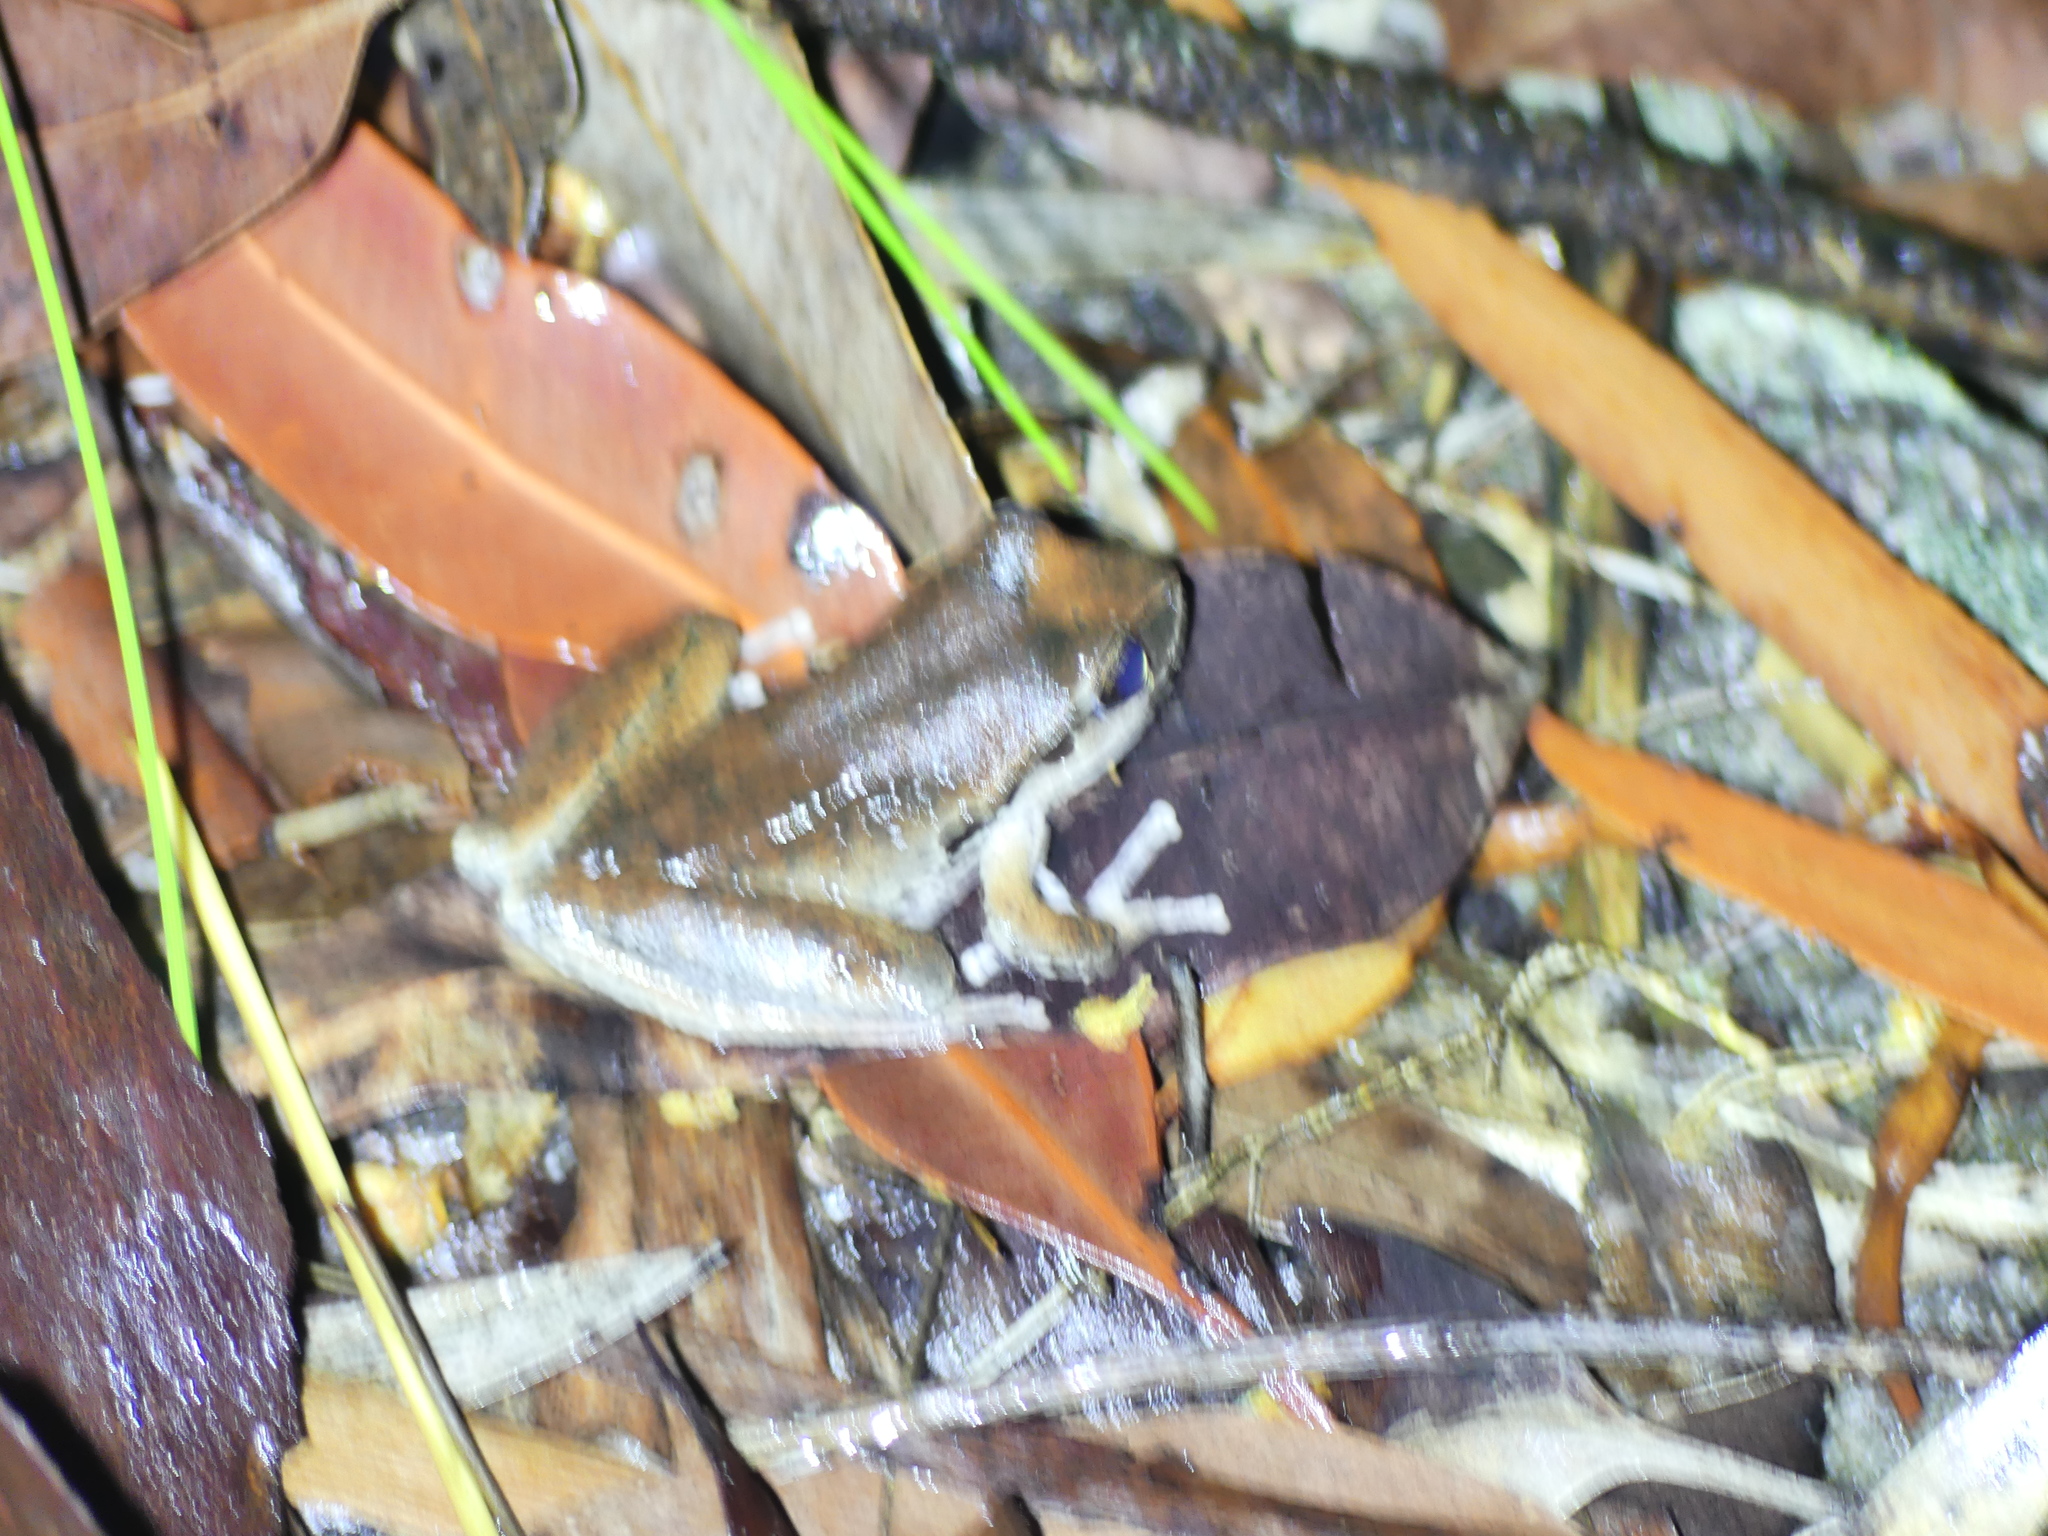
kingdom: Animalia
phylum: Chordata
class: Amphibia
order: Anura
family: Pelodryadidae
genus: Ranoidea
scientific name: Ranoidea lesueurii
